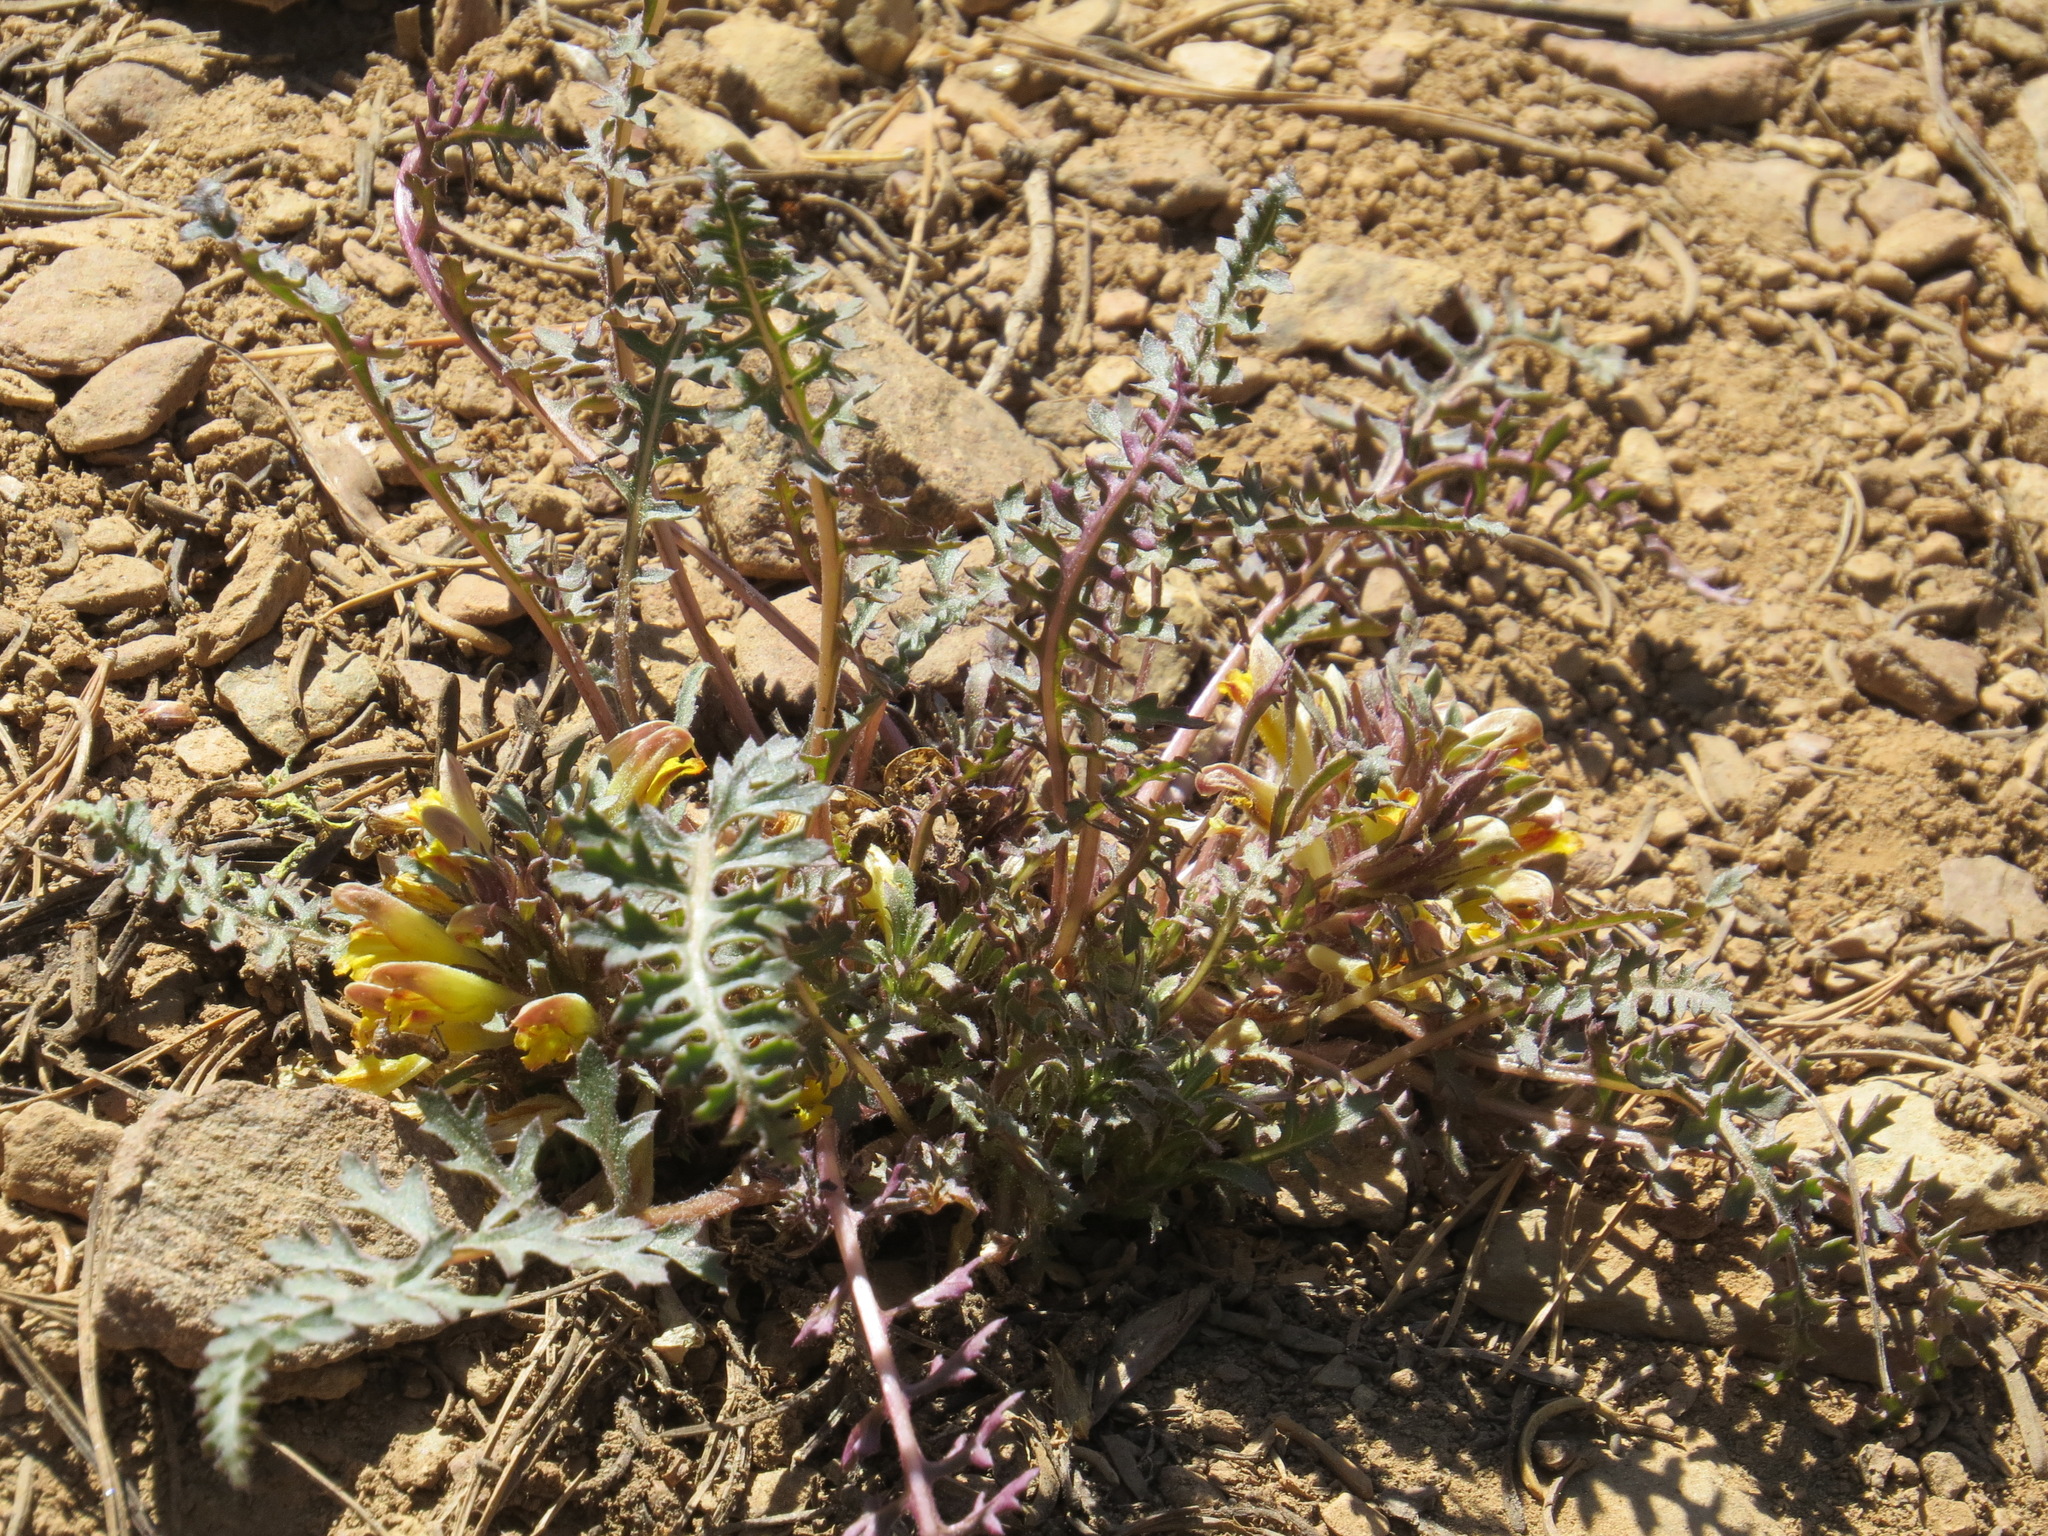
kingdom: Plantae
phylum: Tracheophyta
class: Magnoliopsida
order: Lamiales
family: Orobanchaceae
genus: Pedicularis
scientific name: Pedicularis semibarbata
